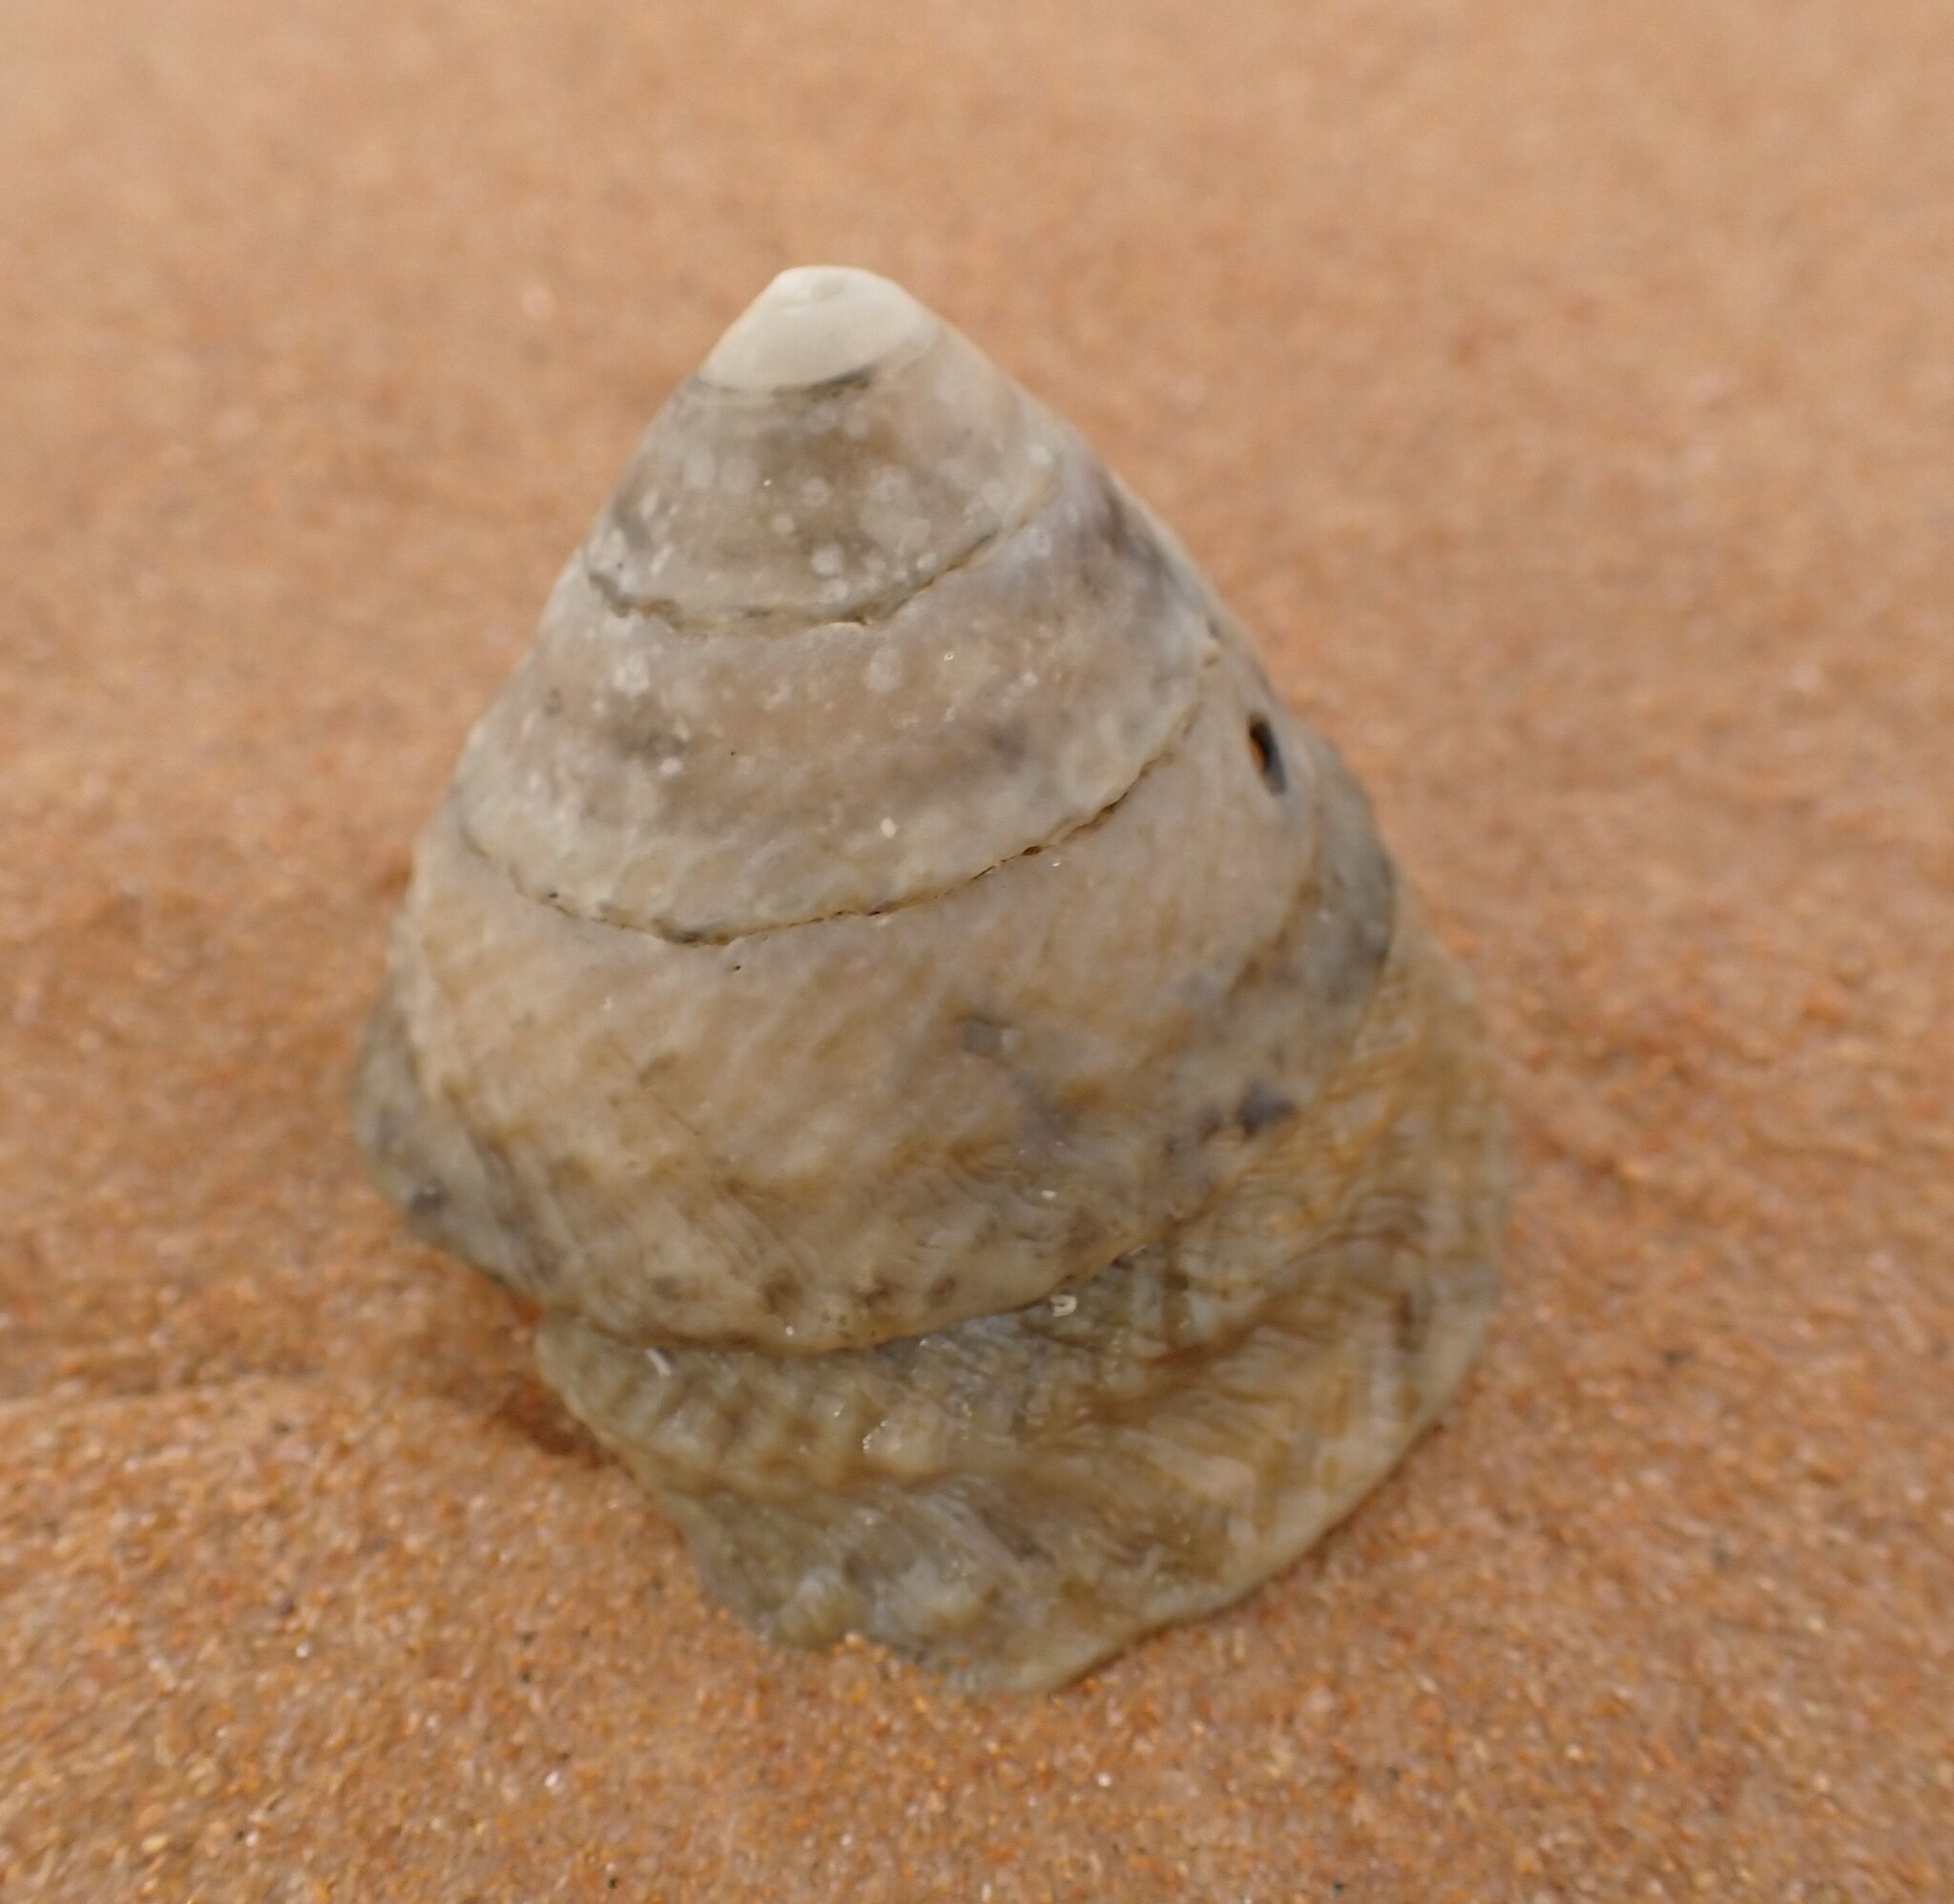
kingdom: Animalia
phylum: Mollusca
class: Gastropoda
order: Trochida
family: Turbinidae
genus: Lithopoma
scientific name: Lithopoma tectum
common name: West indian starsnail
